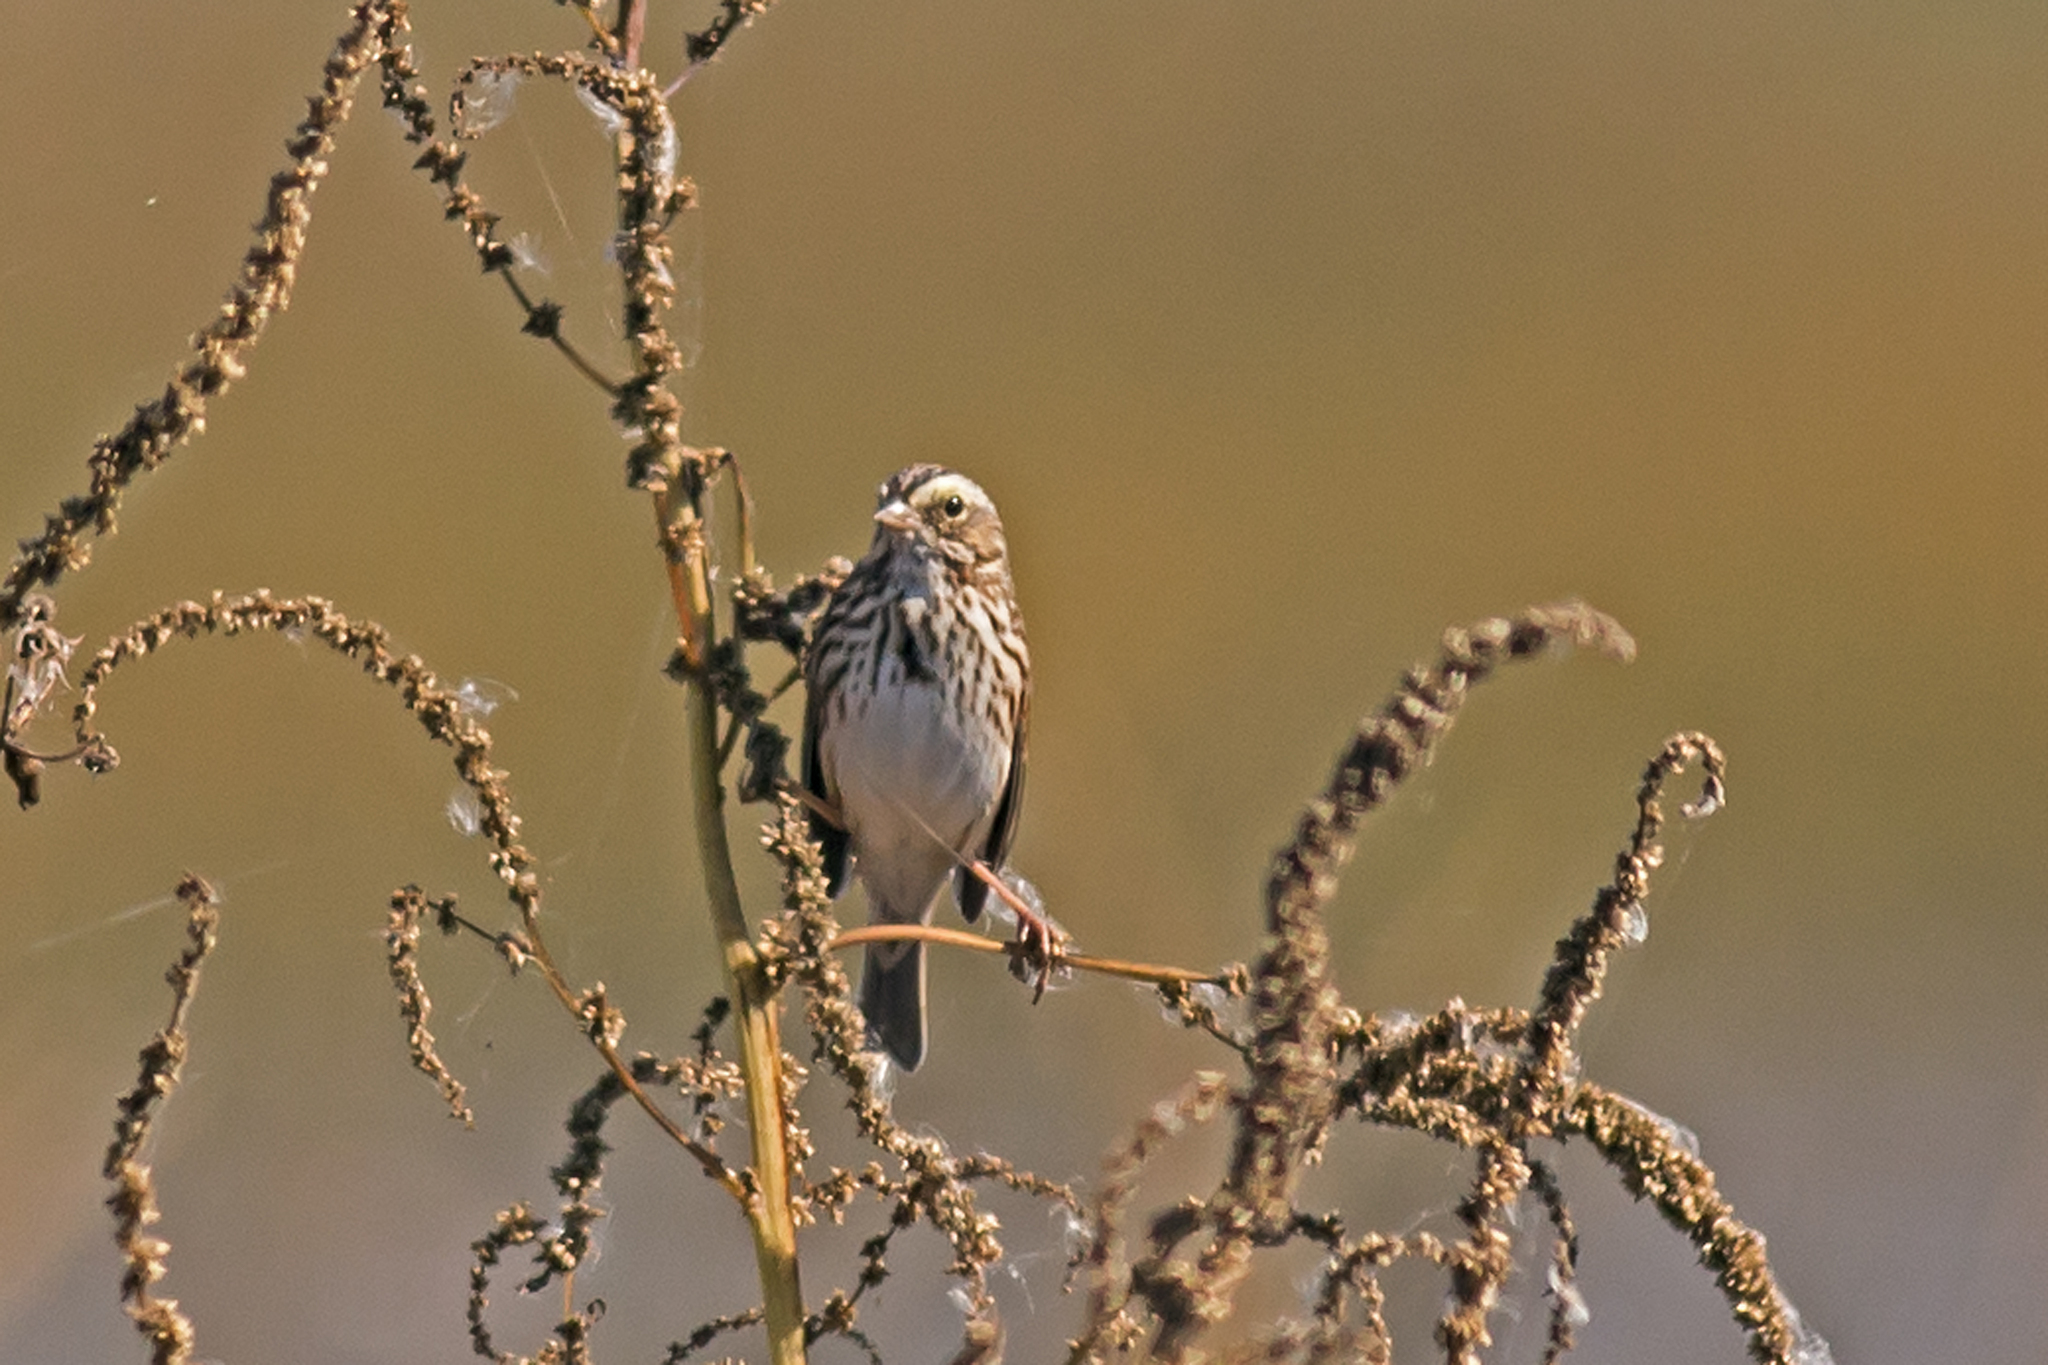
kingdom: Animalia
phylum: Chordata
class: Aves
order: Passeriformes
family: Passerellidae
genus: Passerculus
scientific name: Passerculus sandwichensis
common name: Savannah sparrow
